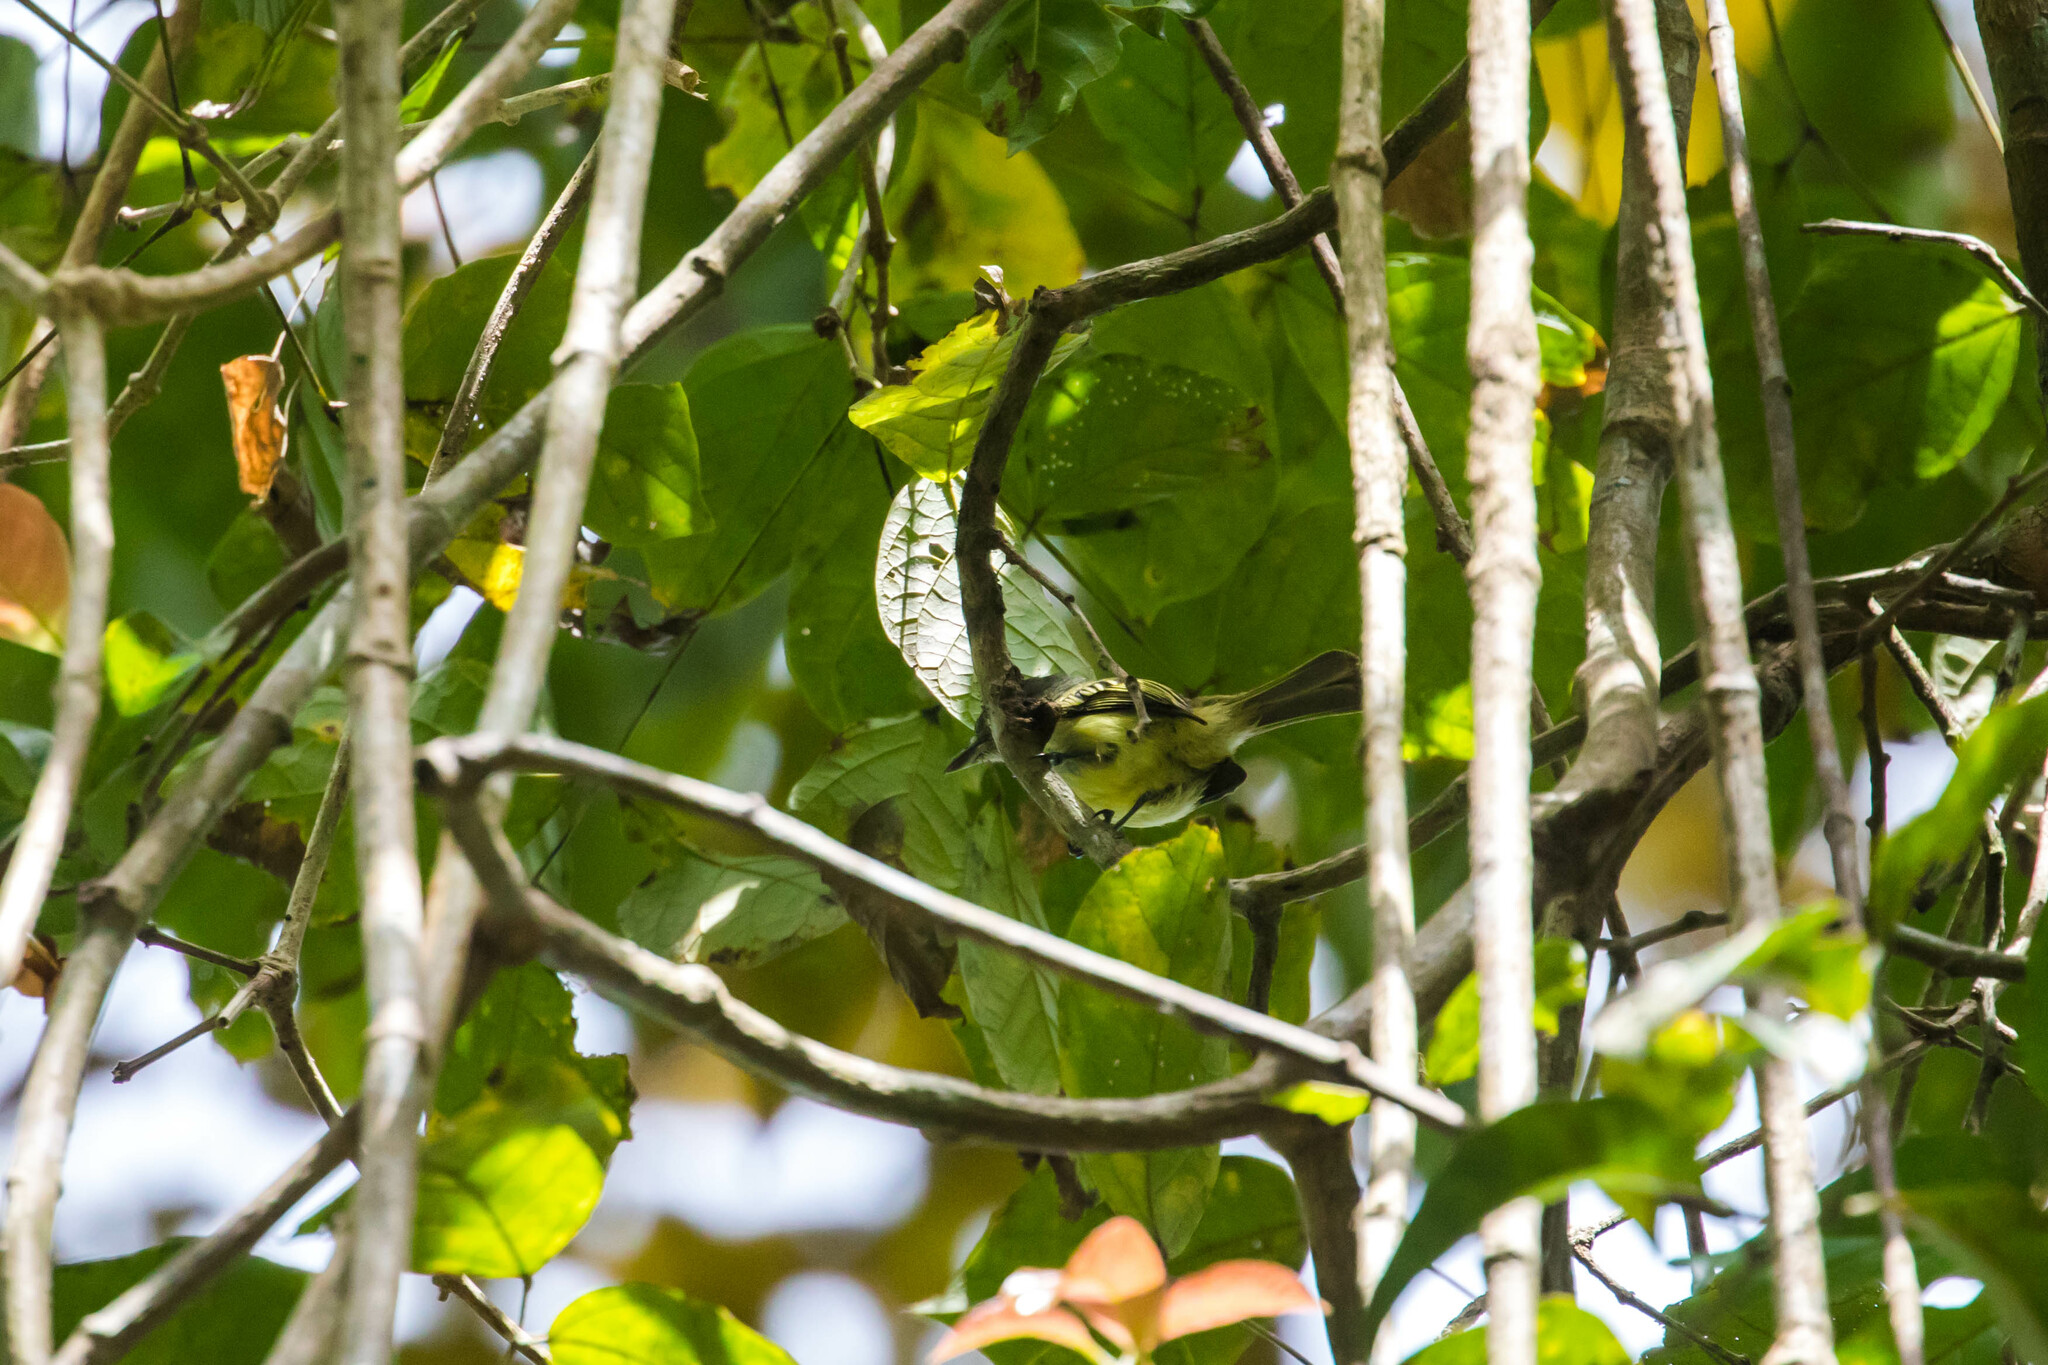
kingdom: Animalia
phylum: Chordata
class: Aves
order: Passeriformes
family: Tyrannidae
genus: Tolmomyias
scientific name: Tolmomyias assimilis
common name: Yellow-margined flycatcher
